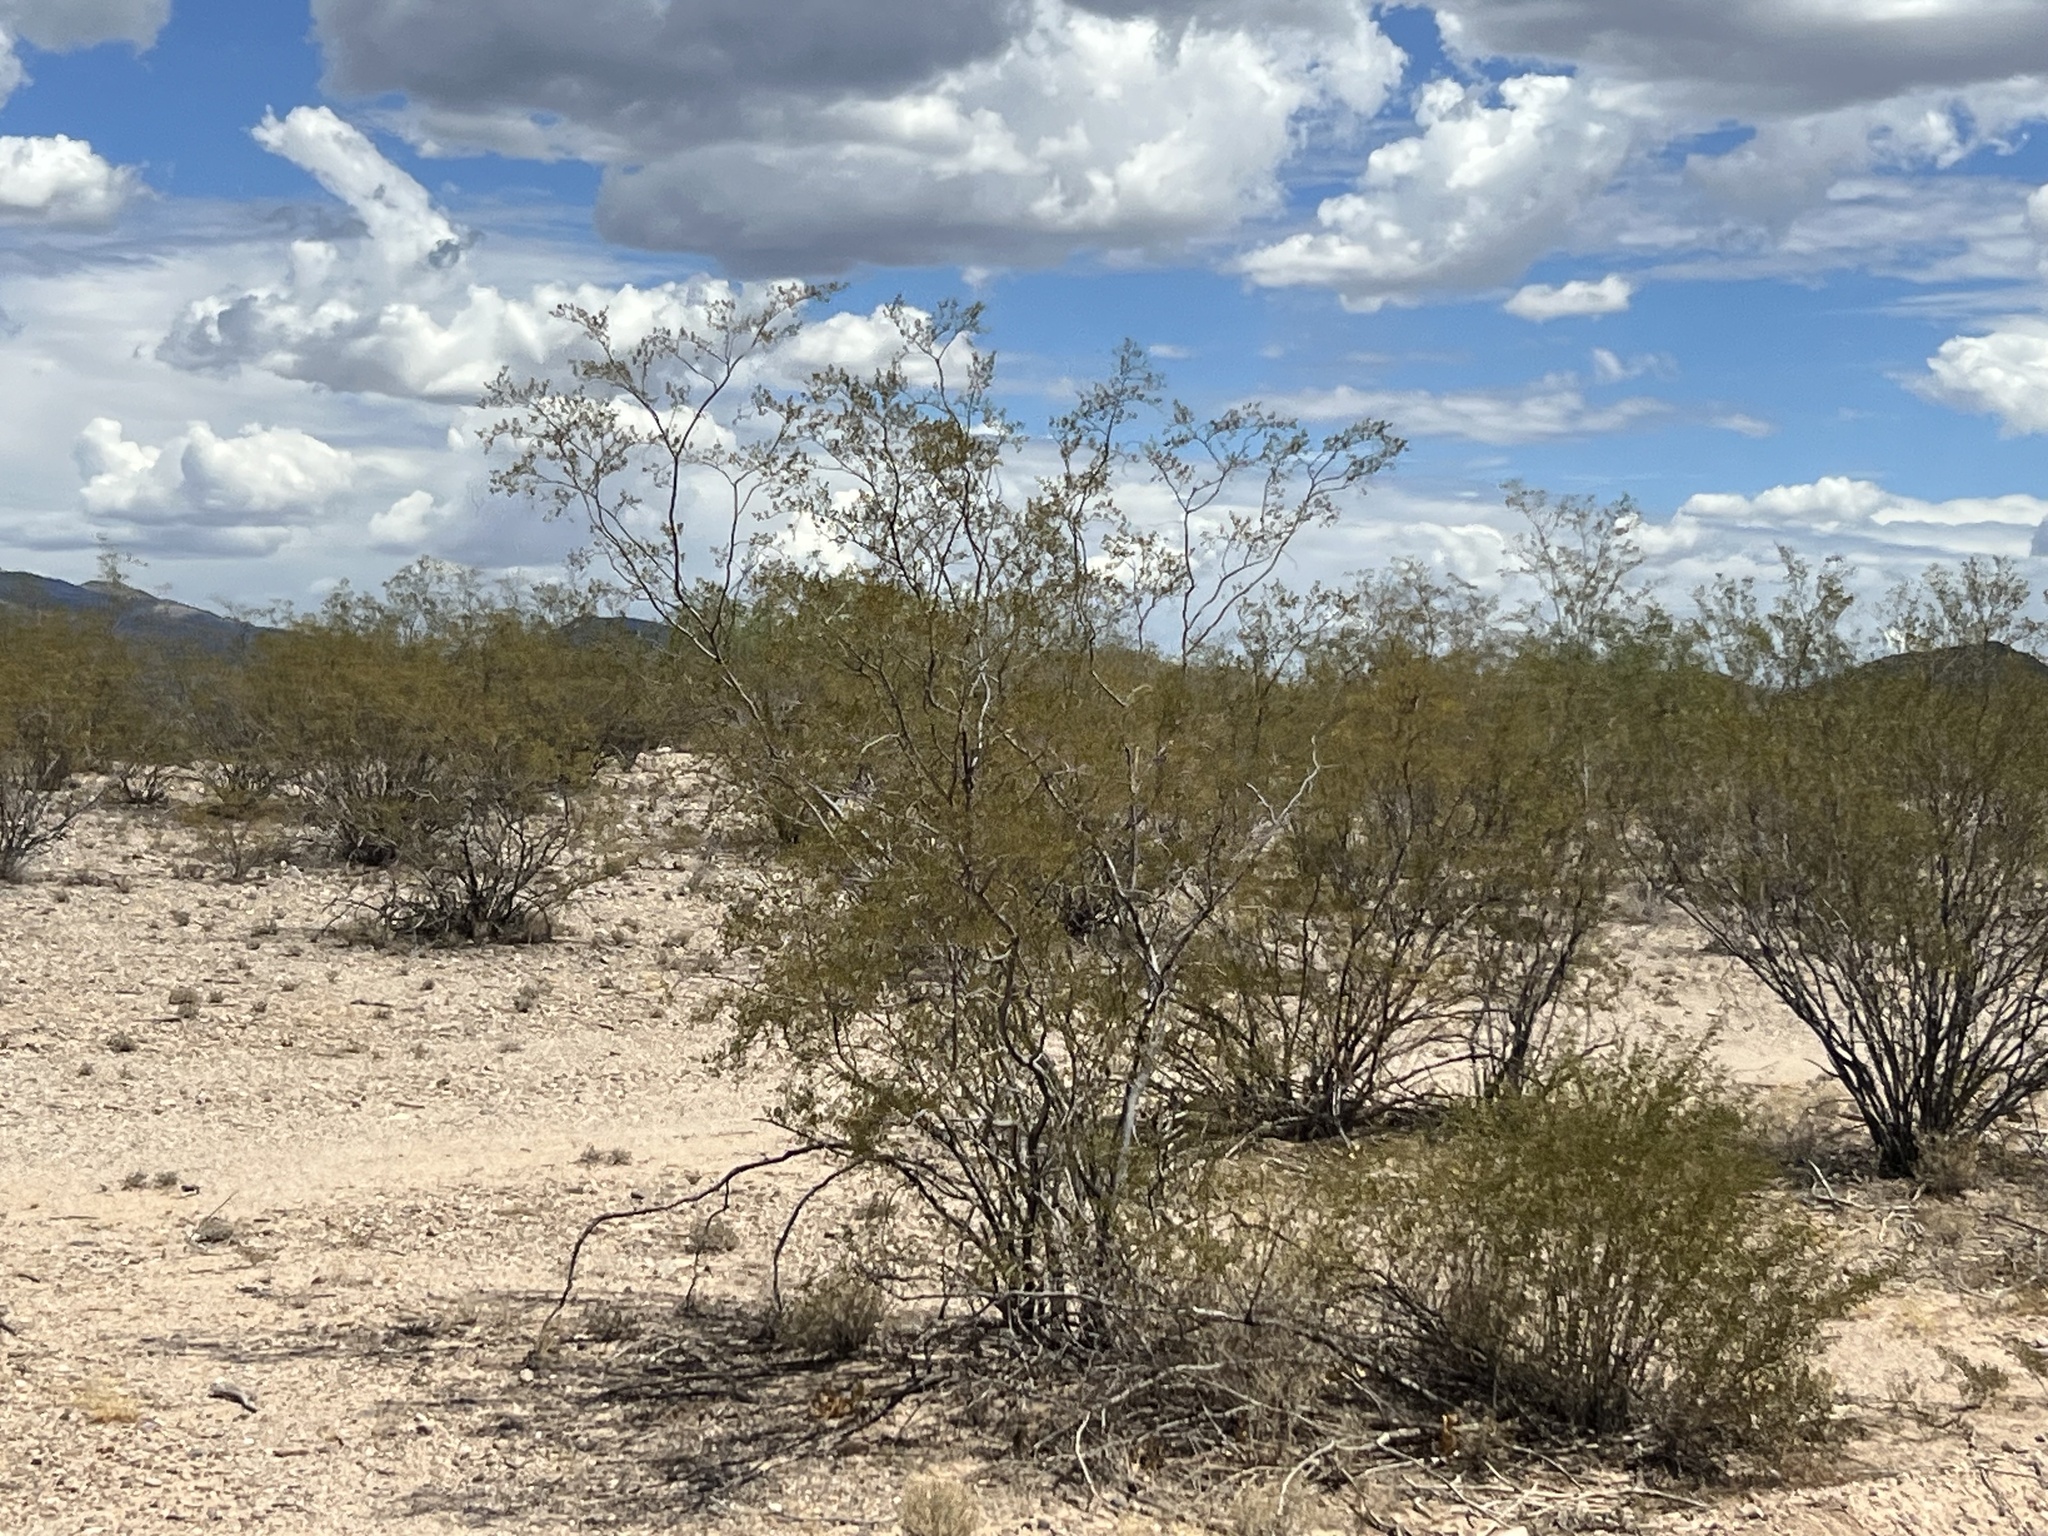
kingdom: Plantae
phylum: Tracheophyta
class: Magnoliopsida
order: Zygophyllales
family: Zygophyllaceae
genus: Larrea
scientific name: Larrea tridentata
